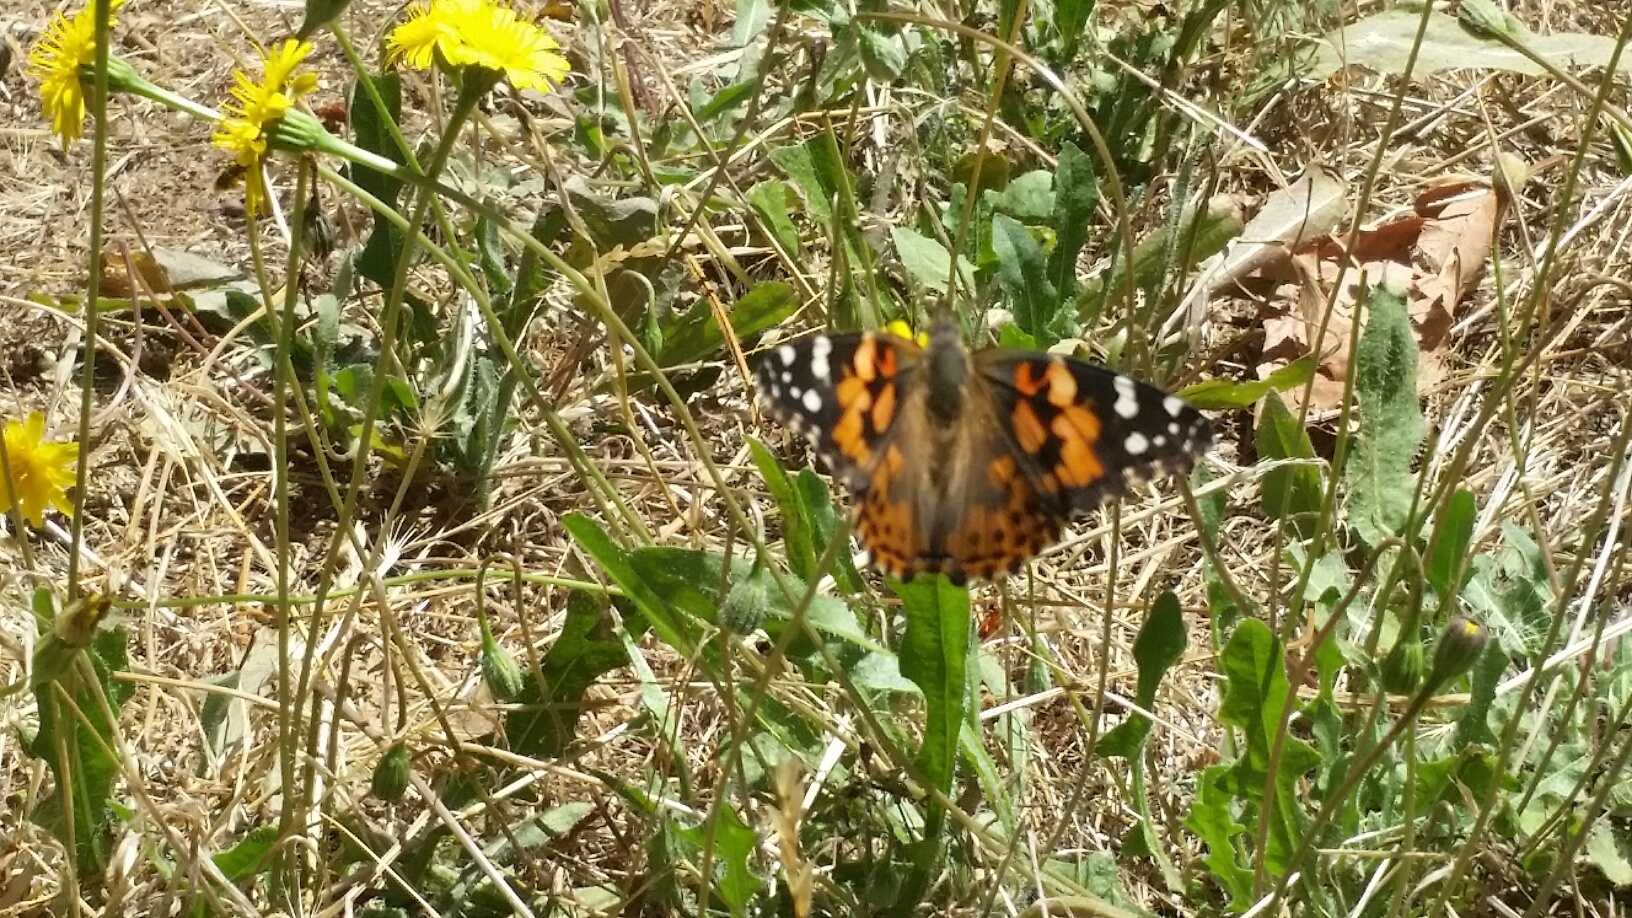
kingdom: Animalia
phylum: Arthropoda
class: Insecta
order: Lepidoptera
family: Nymphalidae
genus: Vanessa
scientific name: Vanessa cardui
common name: Painted lady
